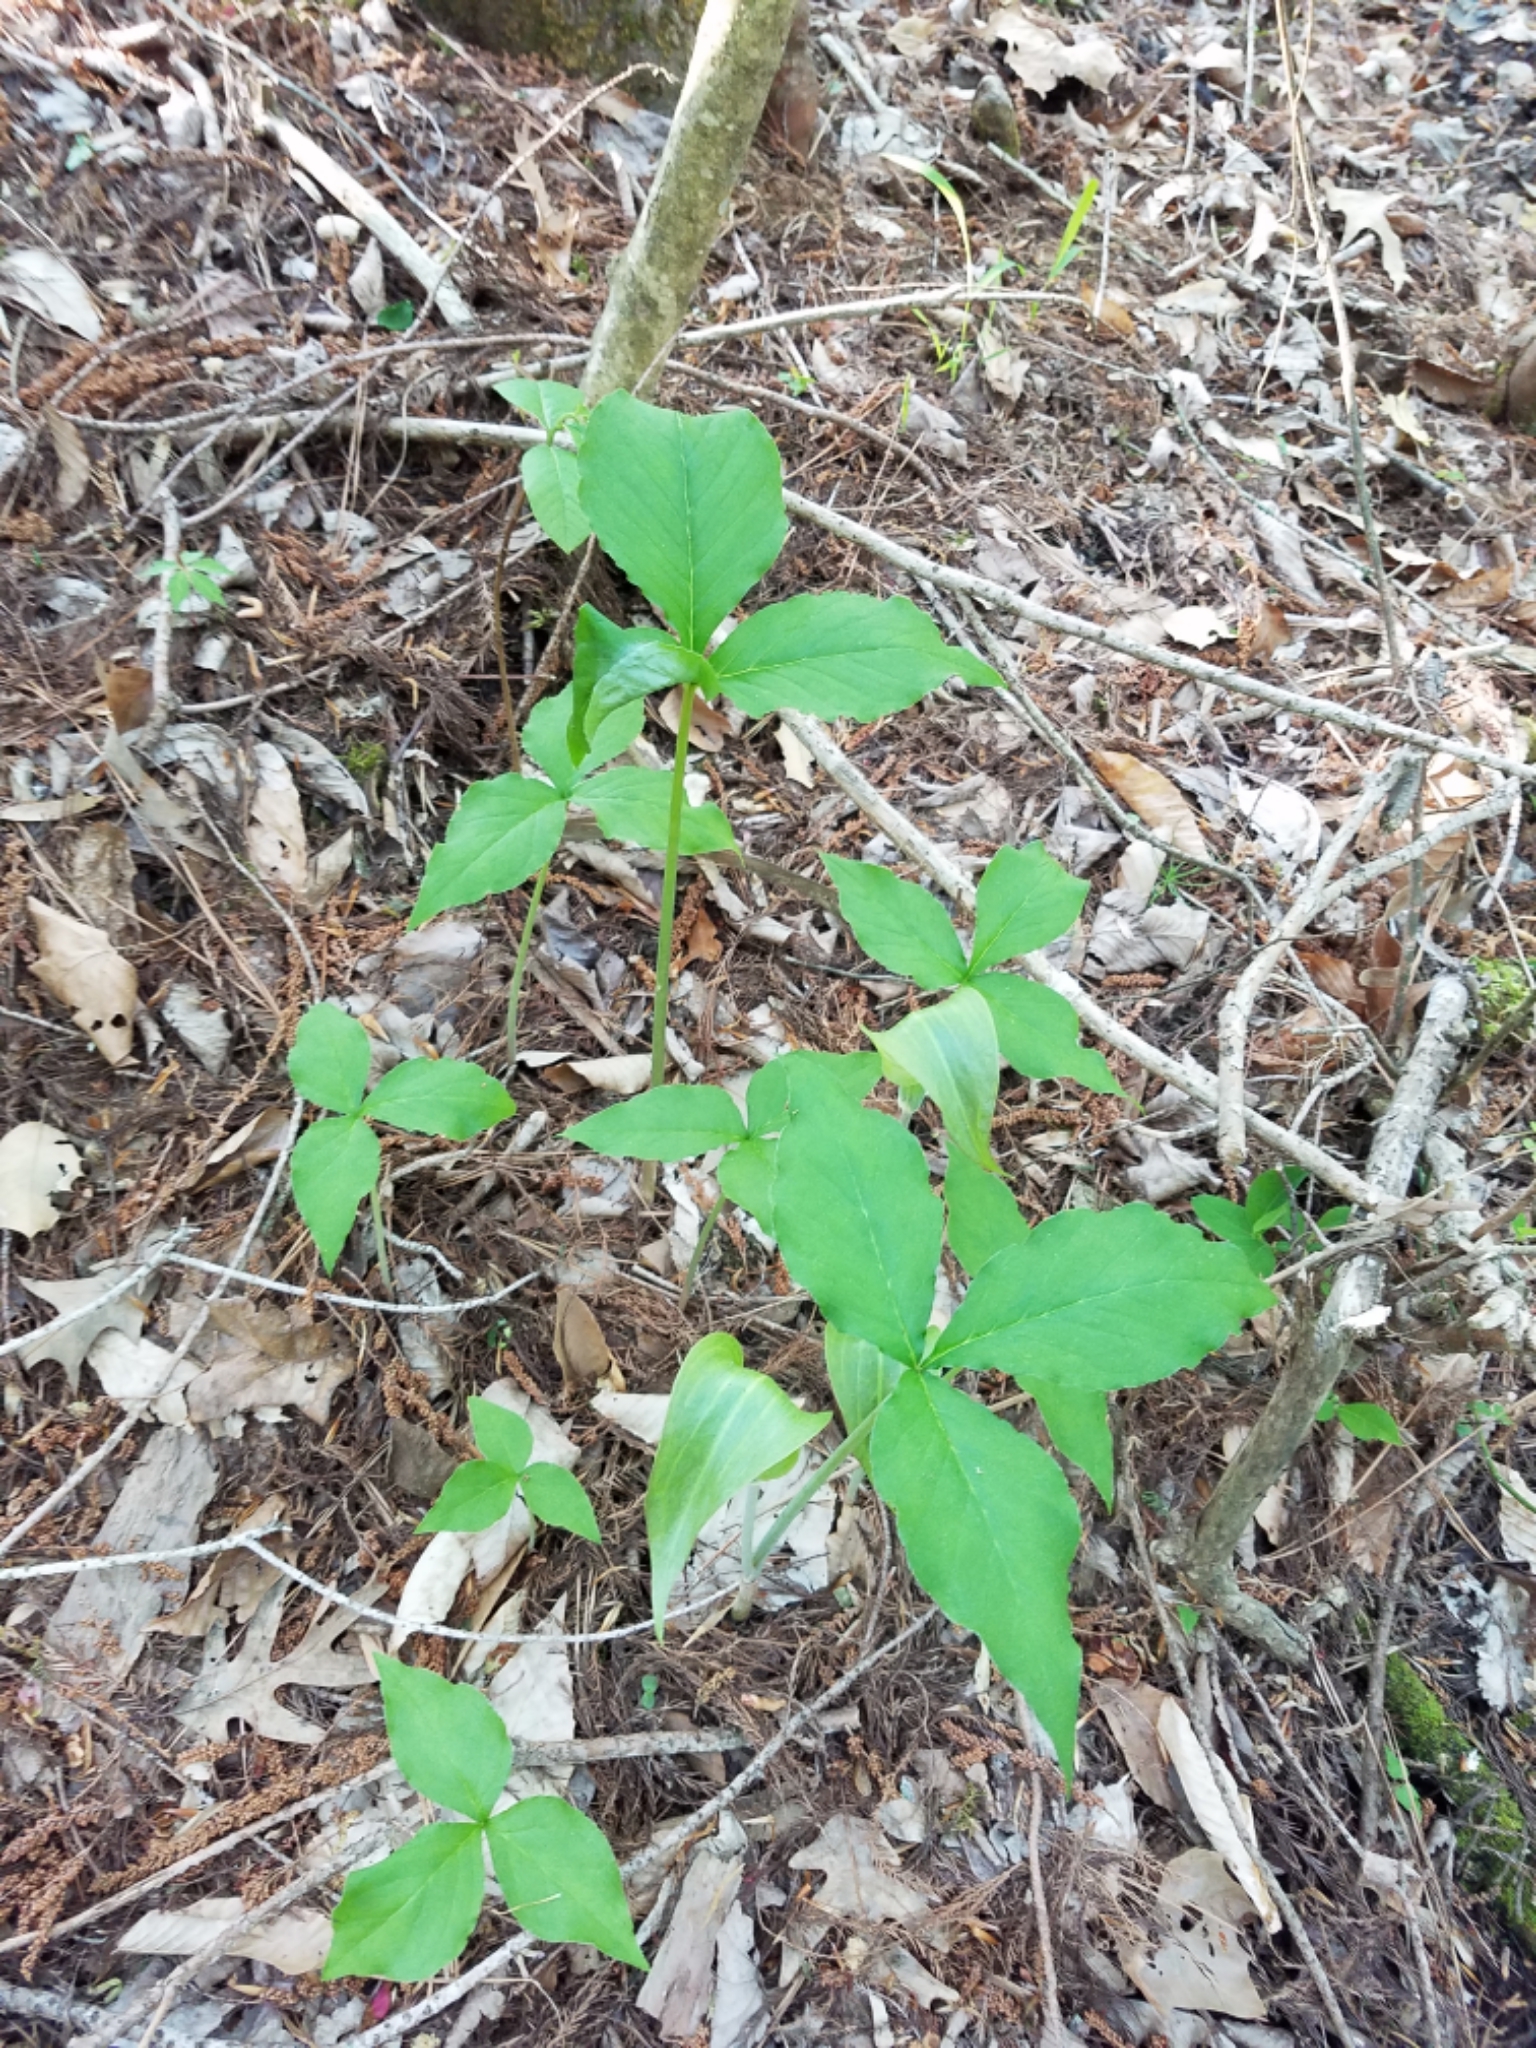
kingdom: Plantae
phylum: Tracheophyta
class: Liliopsida
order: Alismatales
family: Araceae
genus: Arisaema
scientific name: Arisaema triphyllum
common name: Jack-in-the-pulpit
